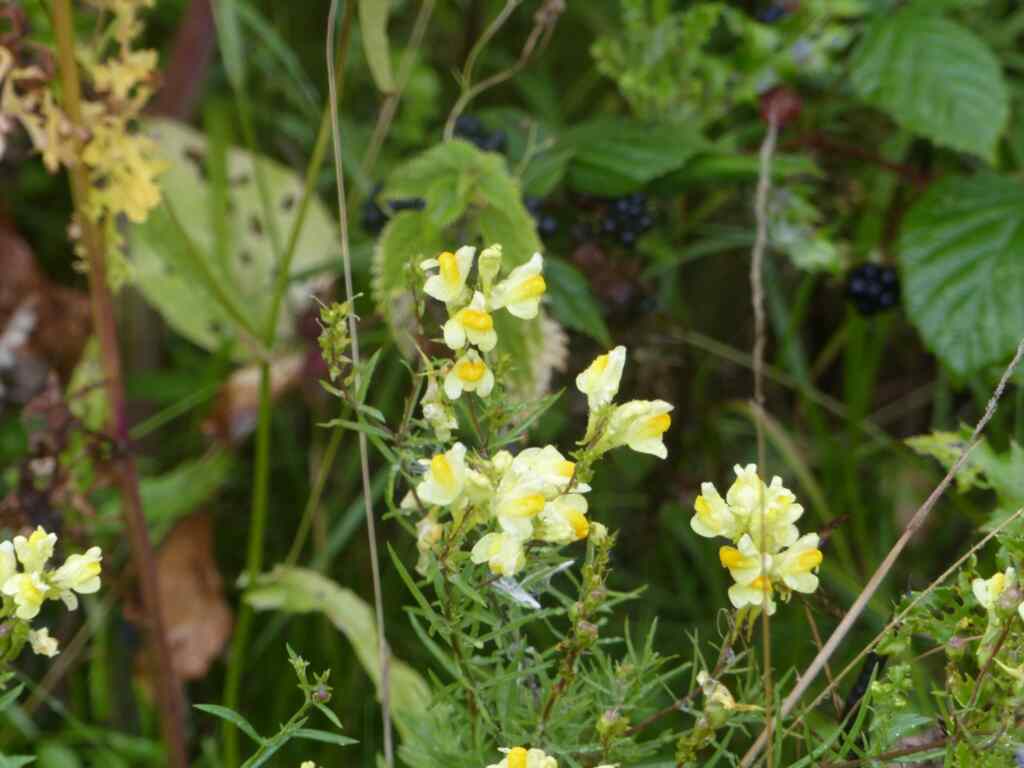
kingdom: Plantae
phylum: Tracheophyta
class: Magnoliopsida
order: Lamiales
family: Plantaginaceae
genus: Linaria
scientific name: Linaria vulgaris
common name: Butter and eggs
